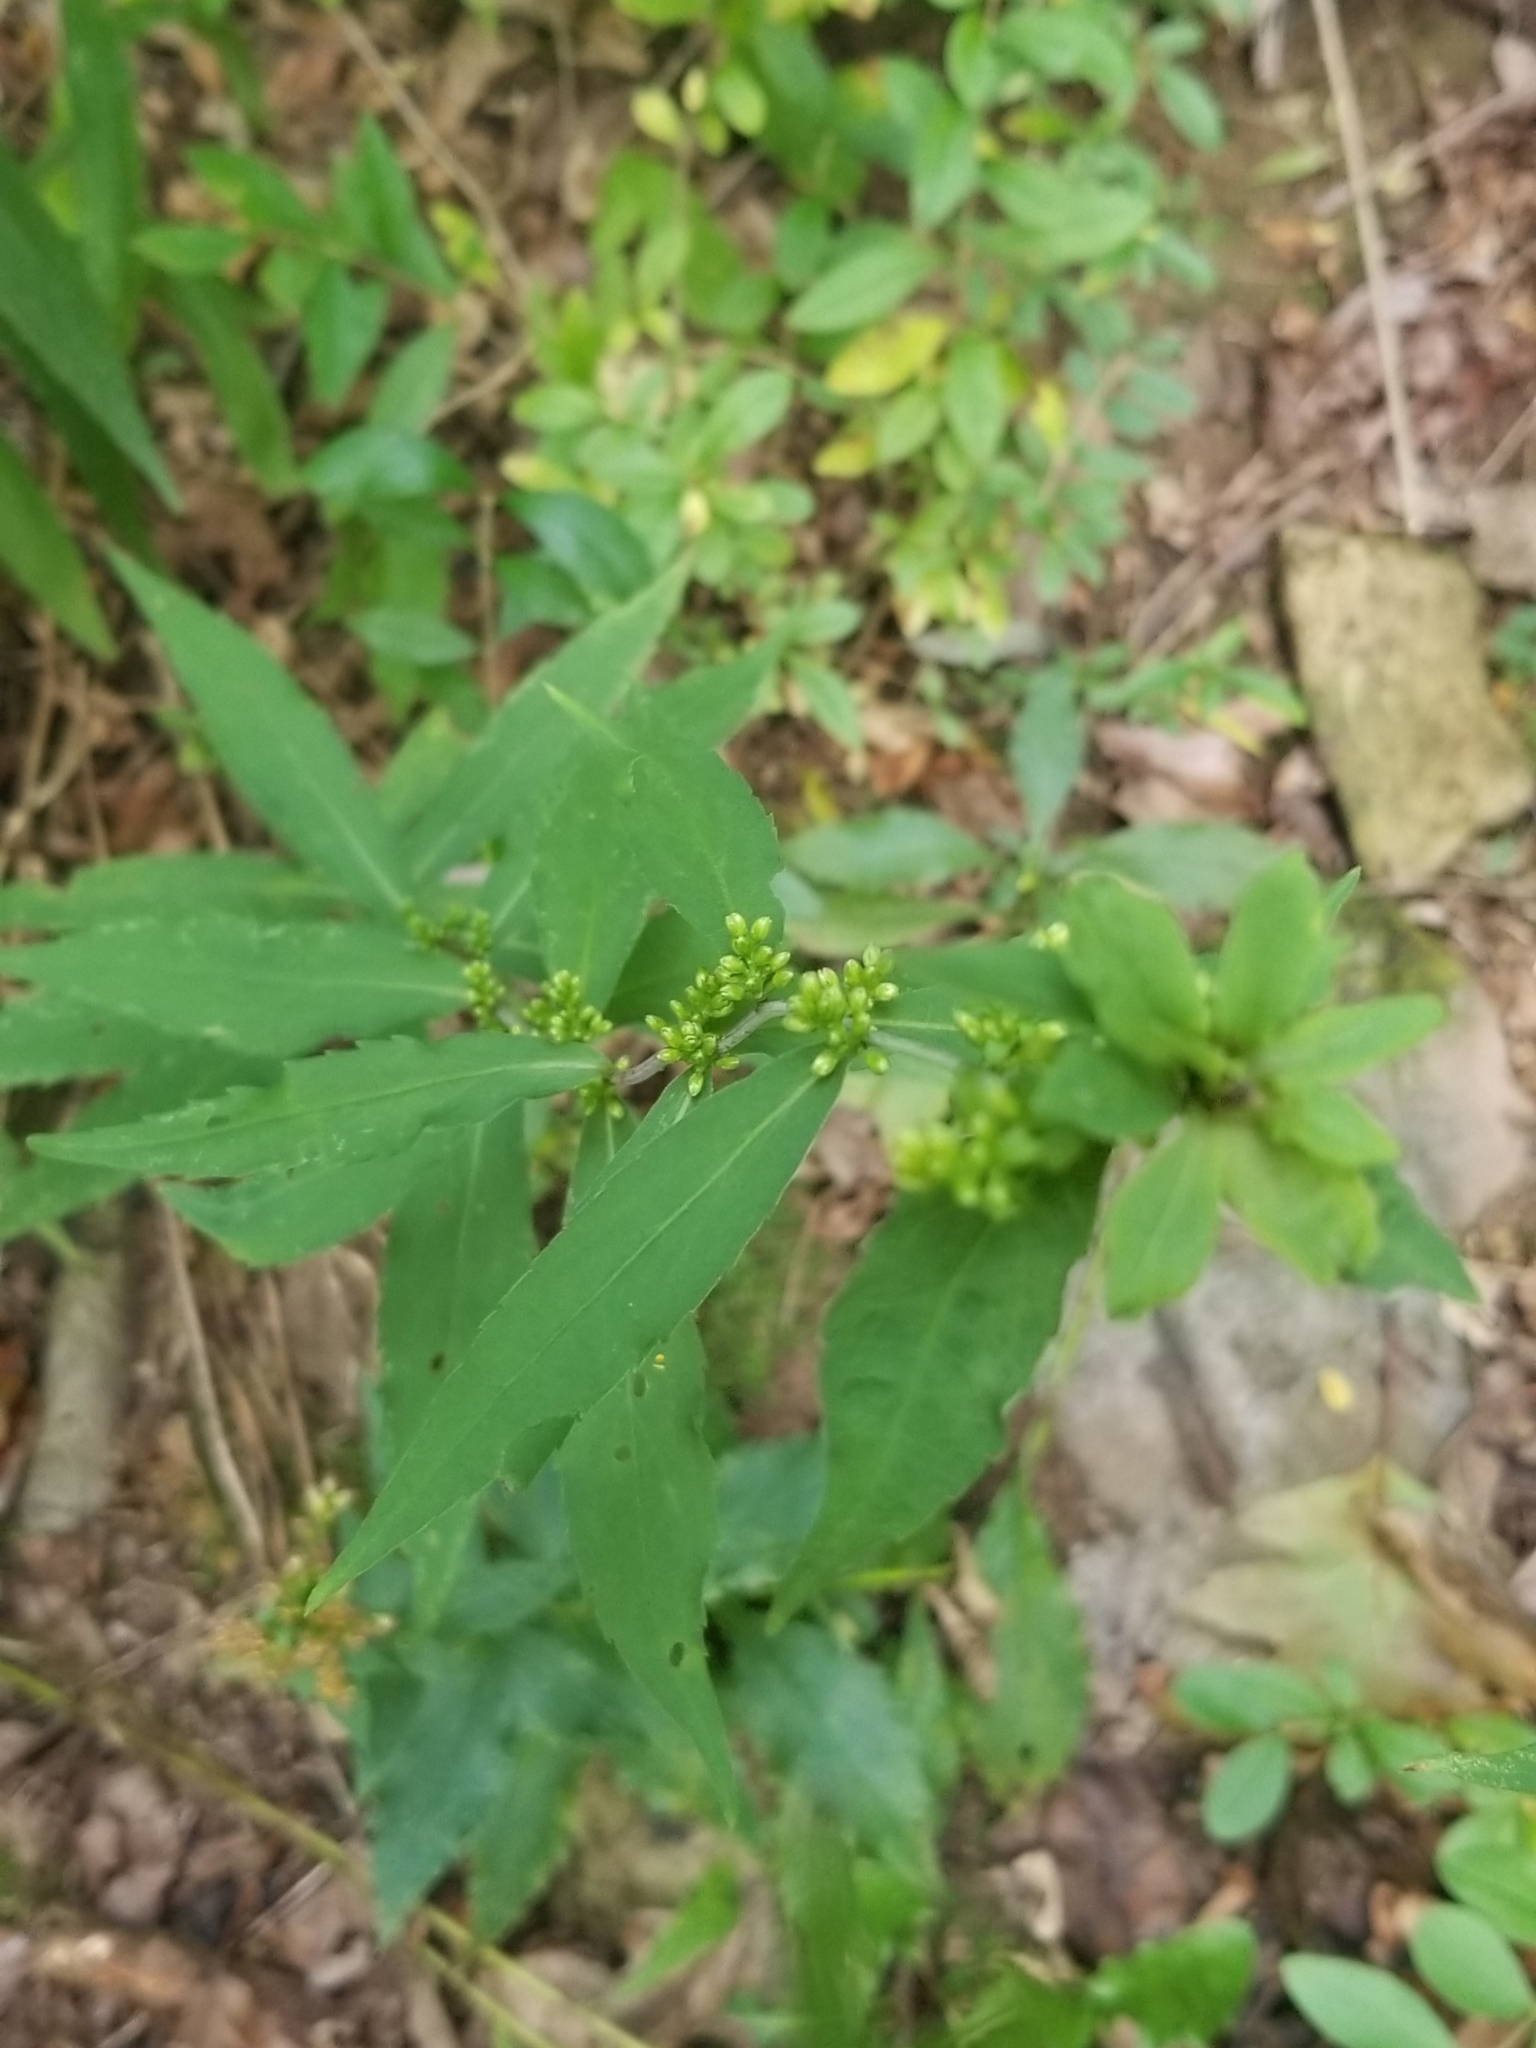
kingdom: Plantae
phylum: Tracheophyta
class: Magnoliopsida
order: Asterales
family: Asteraceae
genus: Solidago
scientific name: Solidago caesia
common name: Woodland goldenrod
